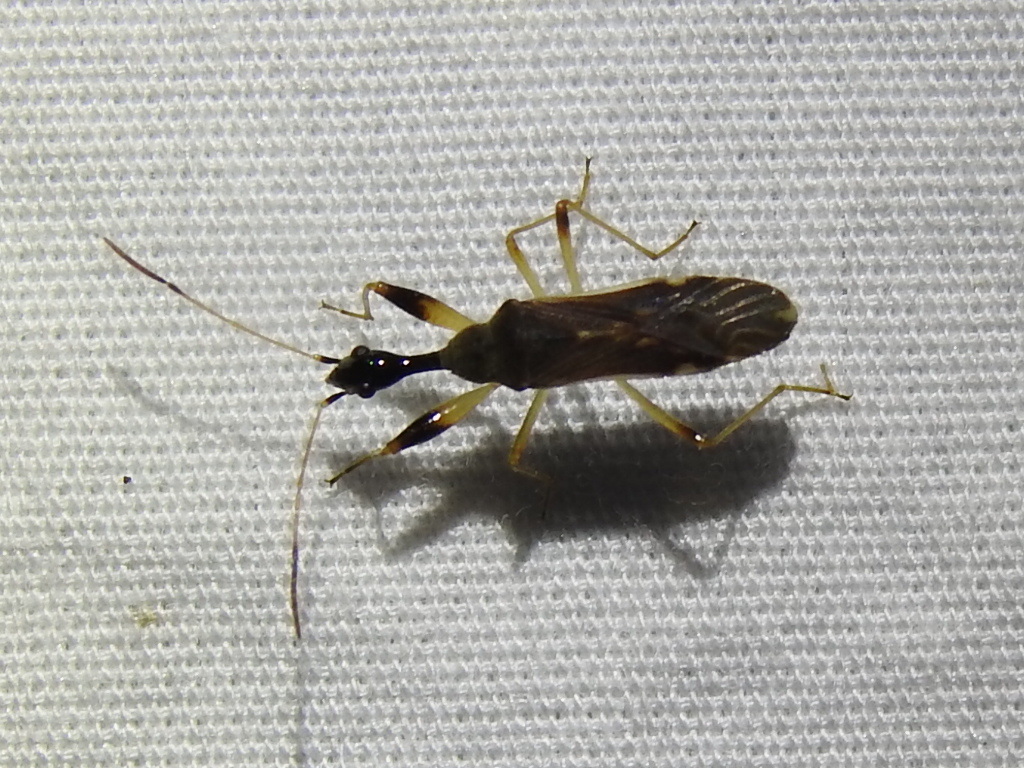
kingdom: Animalia
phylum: Arthropoda
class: Insecta
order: Hemiptera
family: Rhyparochromidae
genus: Myodocha
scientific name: Myodocha serripes
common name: Long-necked seed bug
